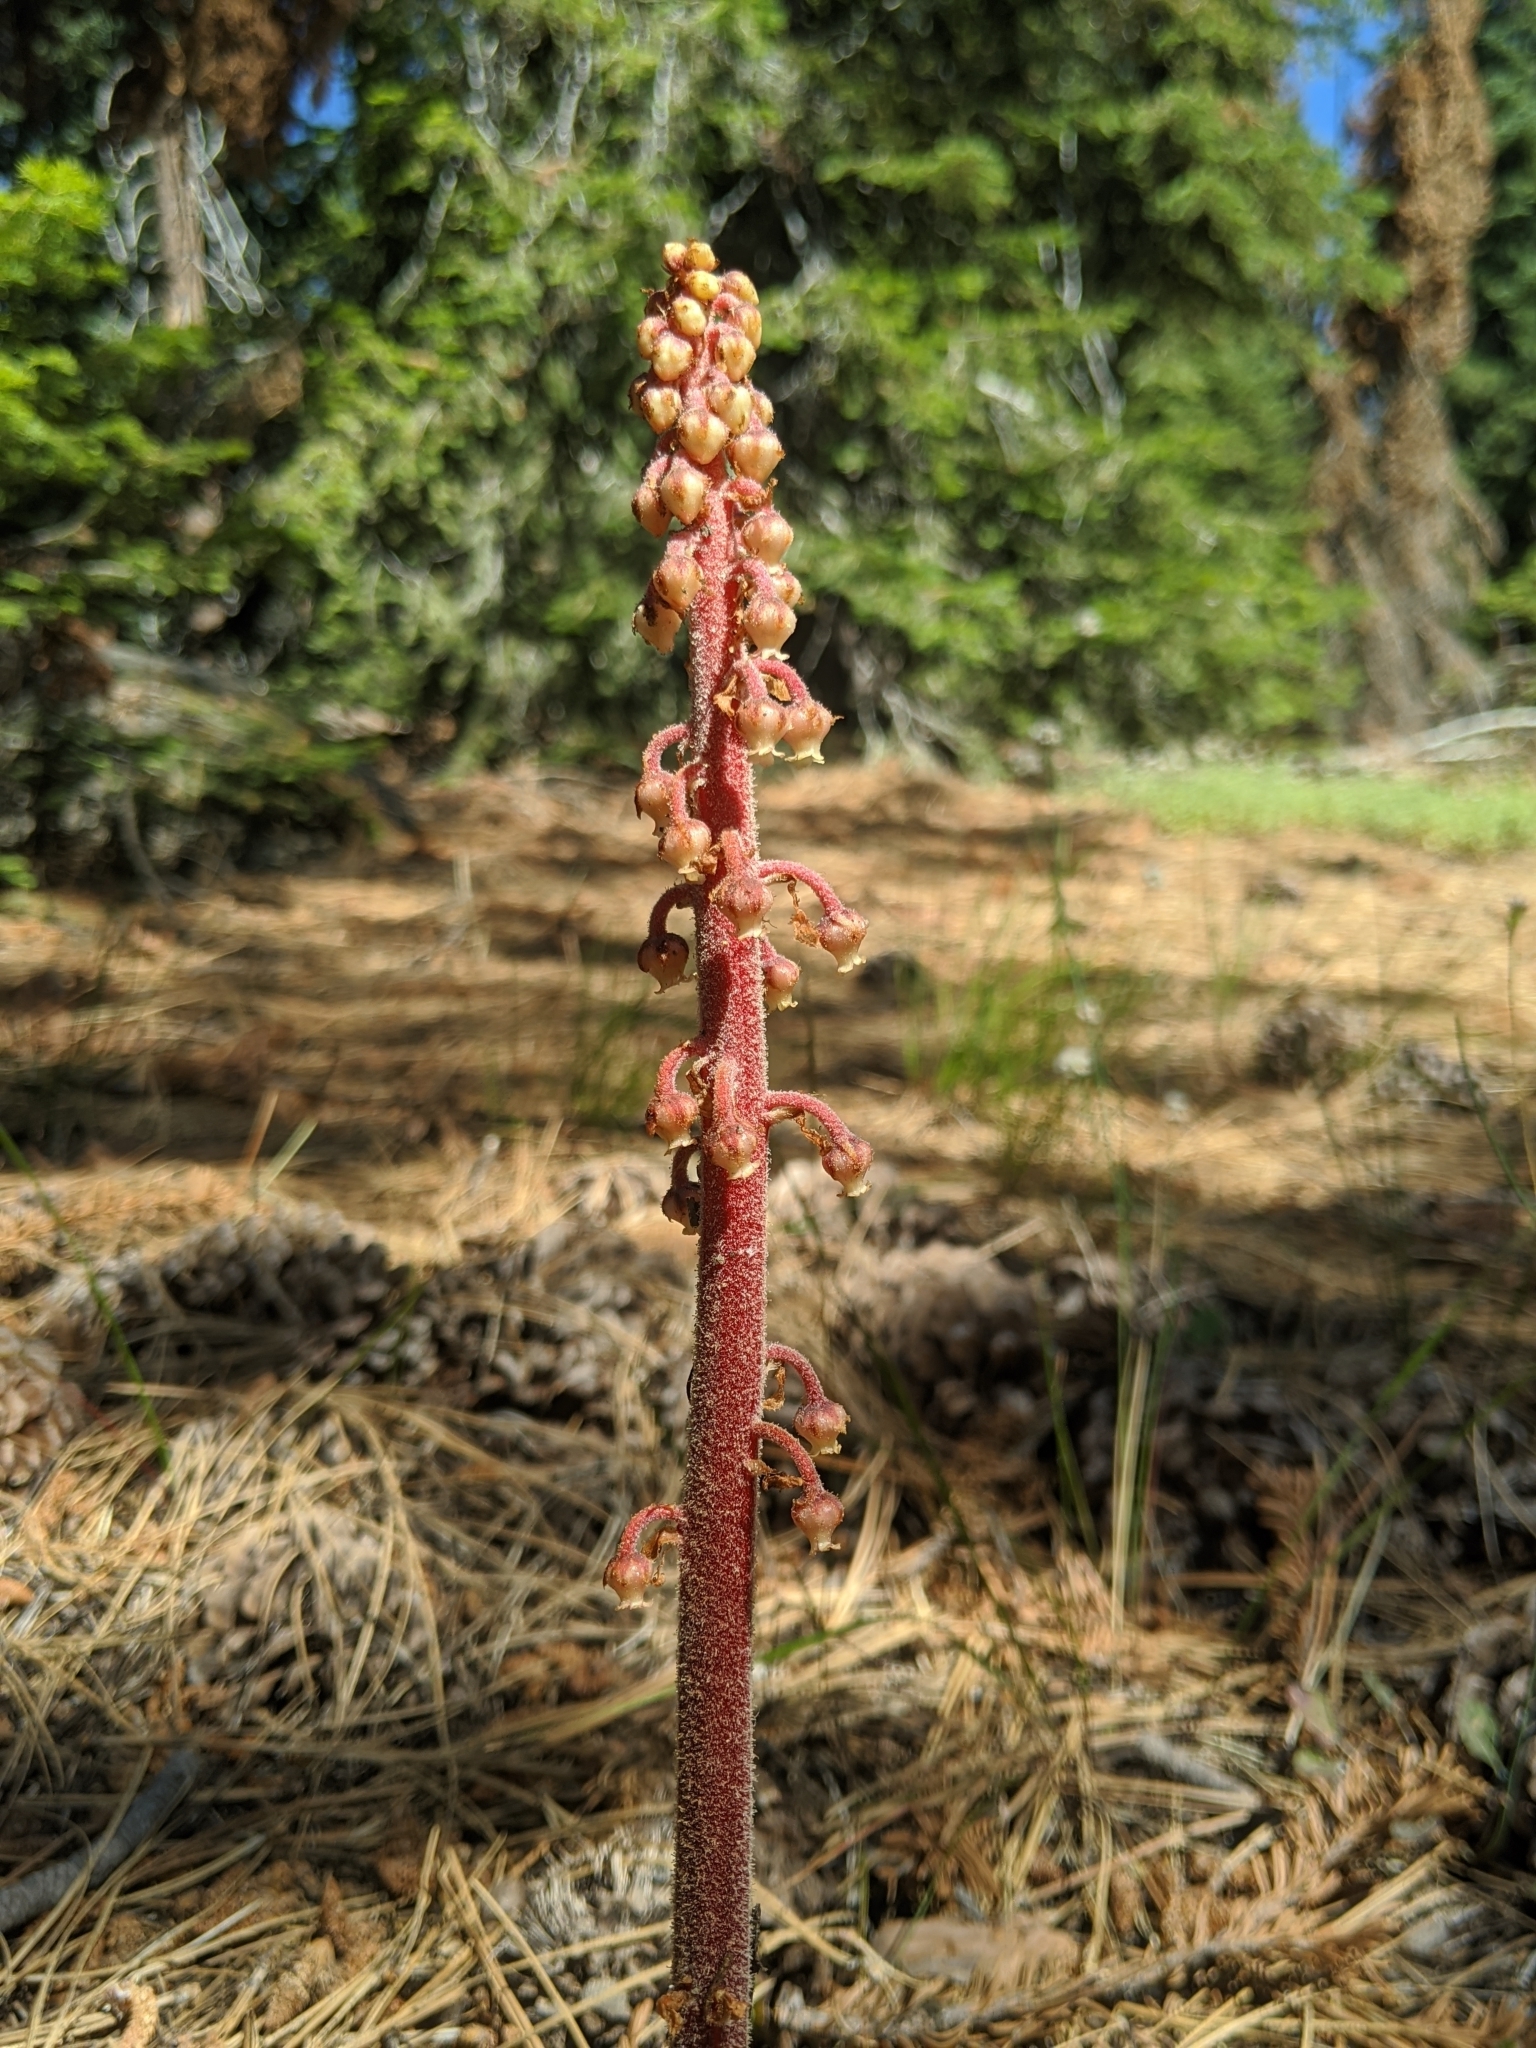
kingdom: Plantae
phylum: Tracheophyta
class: Magnoliopsida
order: Ericales
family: Ericaceae
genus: Pterospora
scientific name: Pterospora andromedea
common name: Giant bird's-nest
